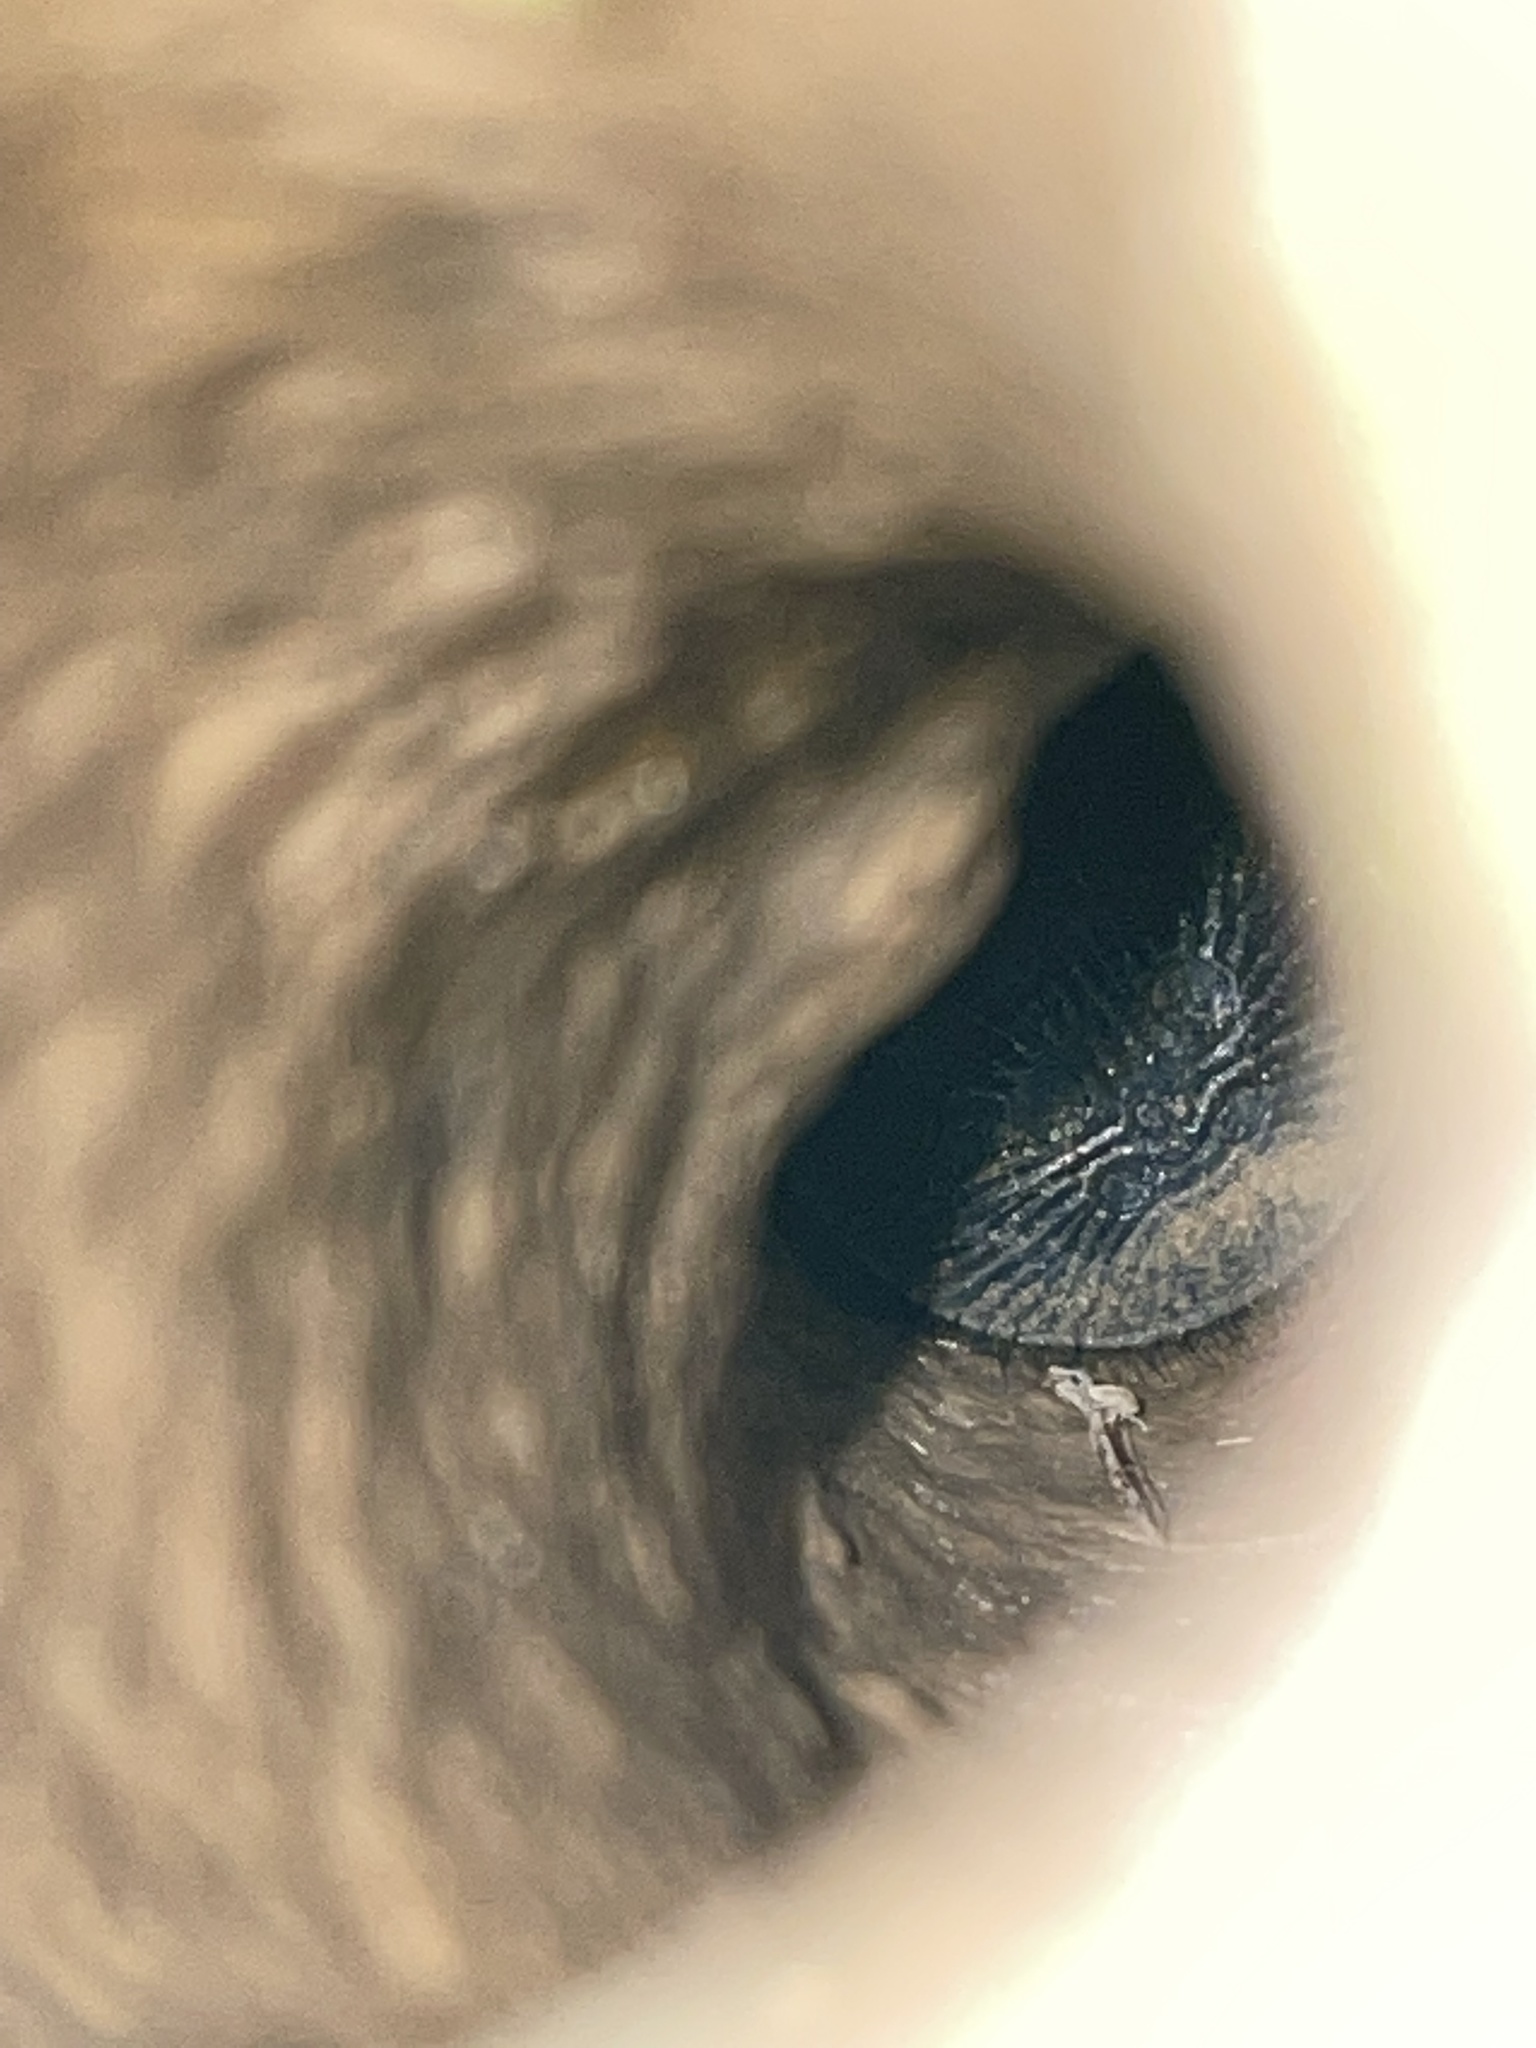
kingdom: Animalia
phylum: Arthropoda
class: Arachnida
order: Araneae
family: Halonoproctidae
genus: Cyclocosmia
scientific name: Cyclocosmia truncata
